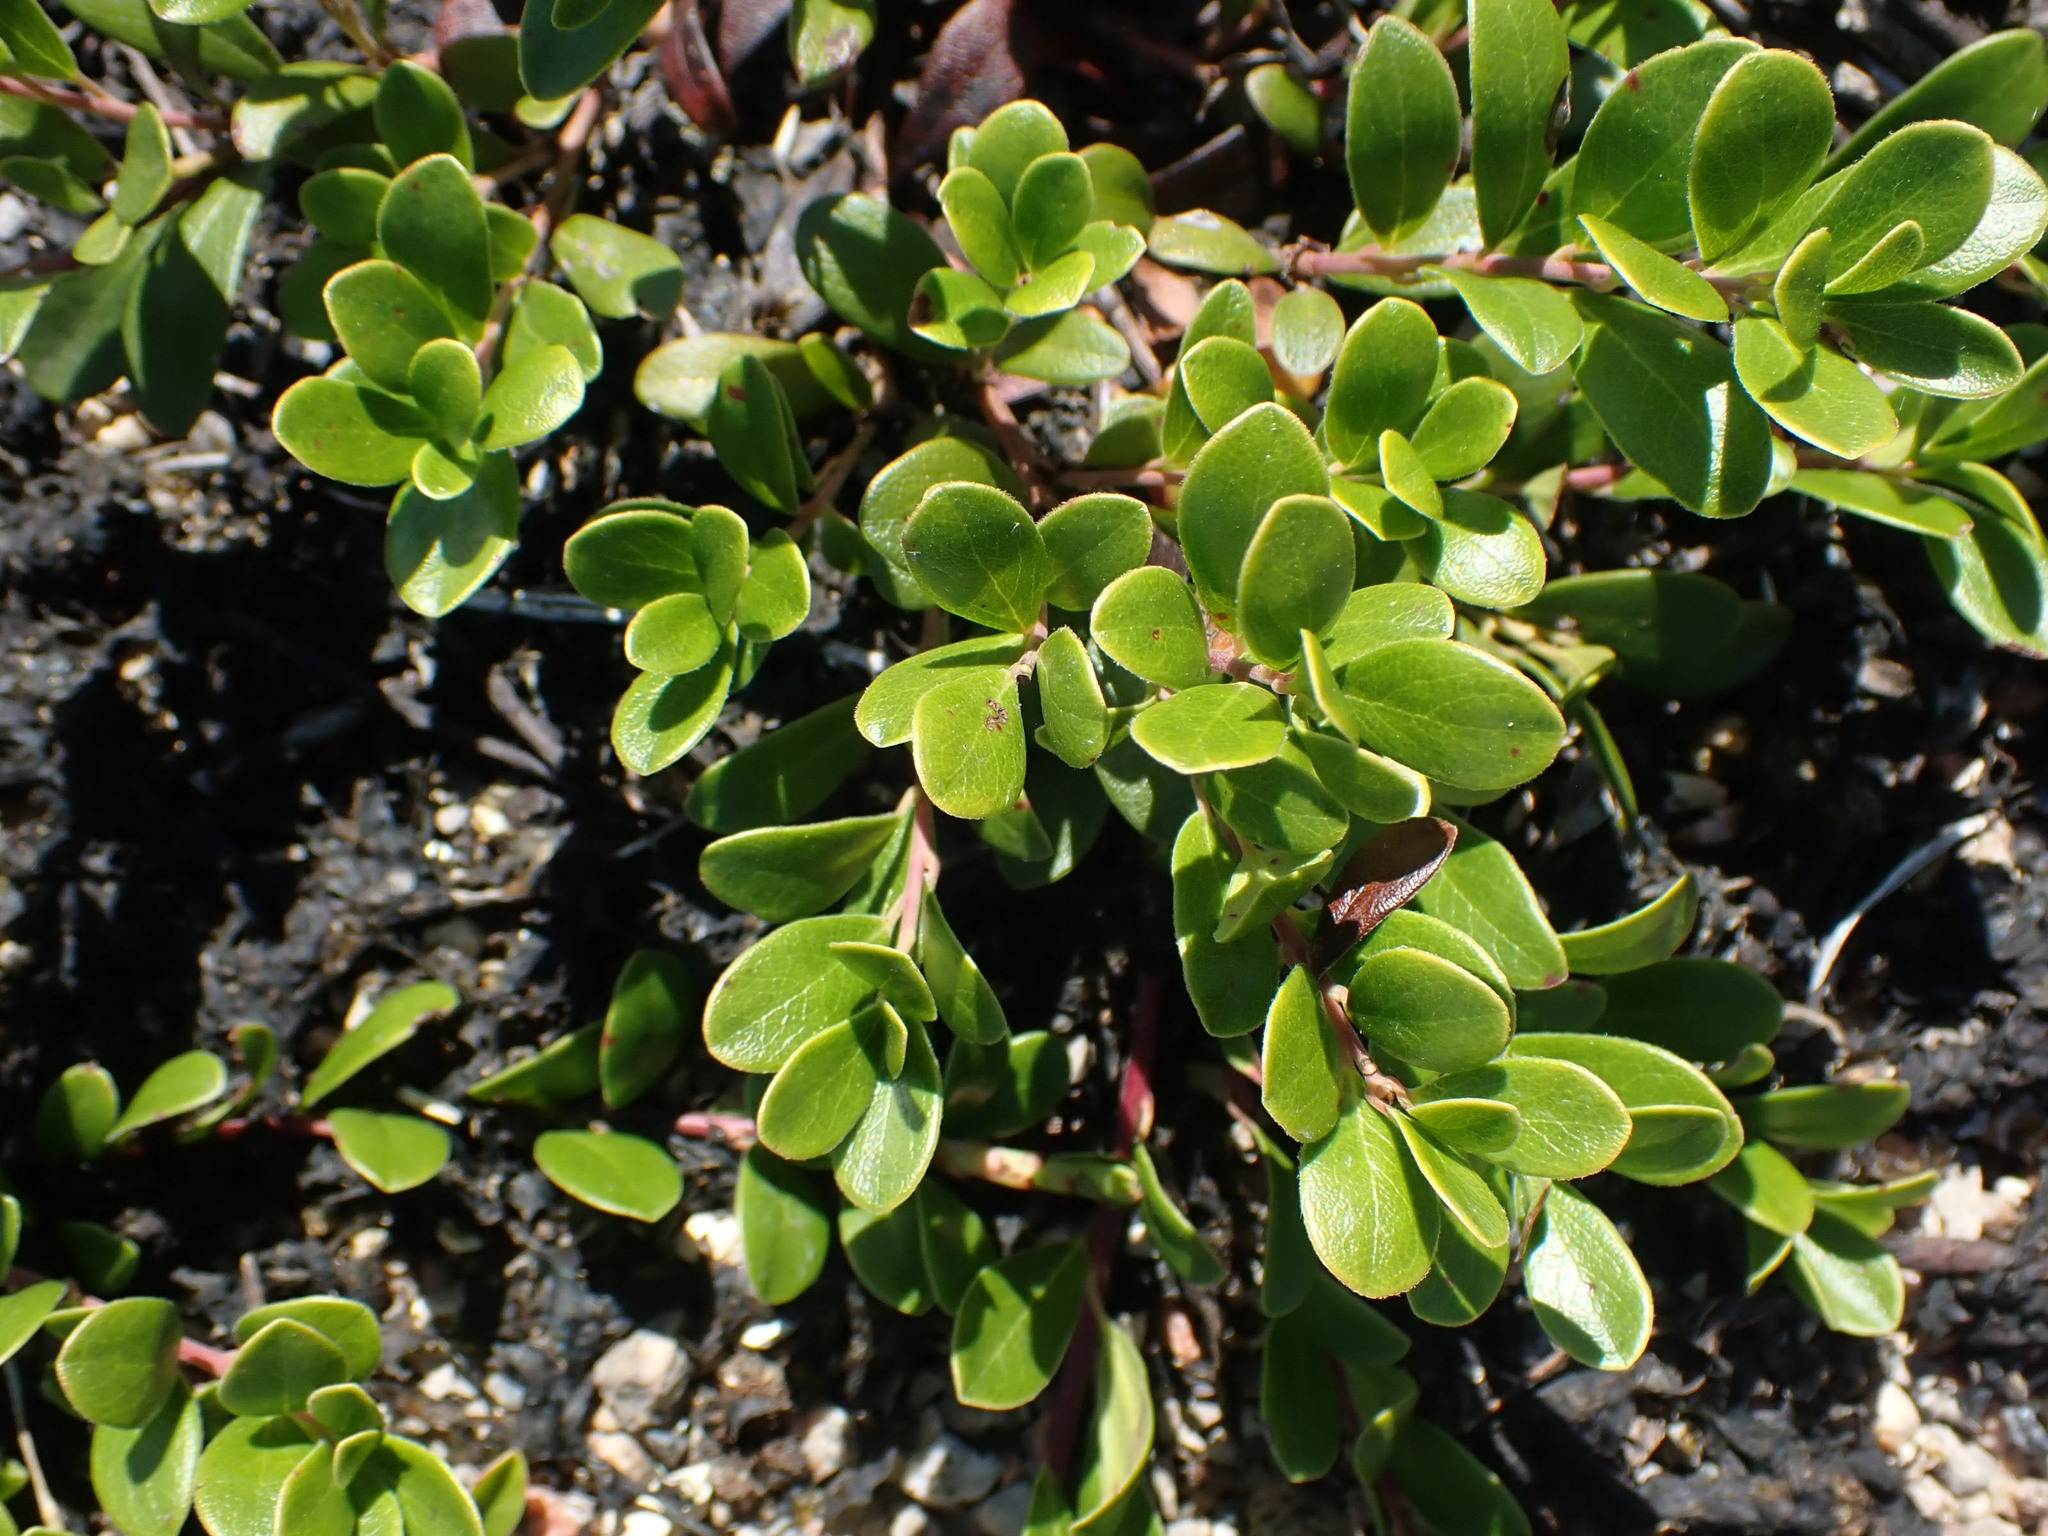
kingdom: Plantae
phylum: Tracheophyta
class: Magnoliopsida
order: Ericales
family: Ericaceae
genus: Arctostaphylos
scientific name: Arctostaphylos uva-ursi
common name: Bearberry
